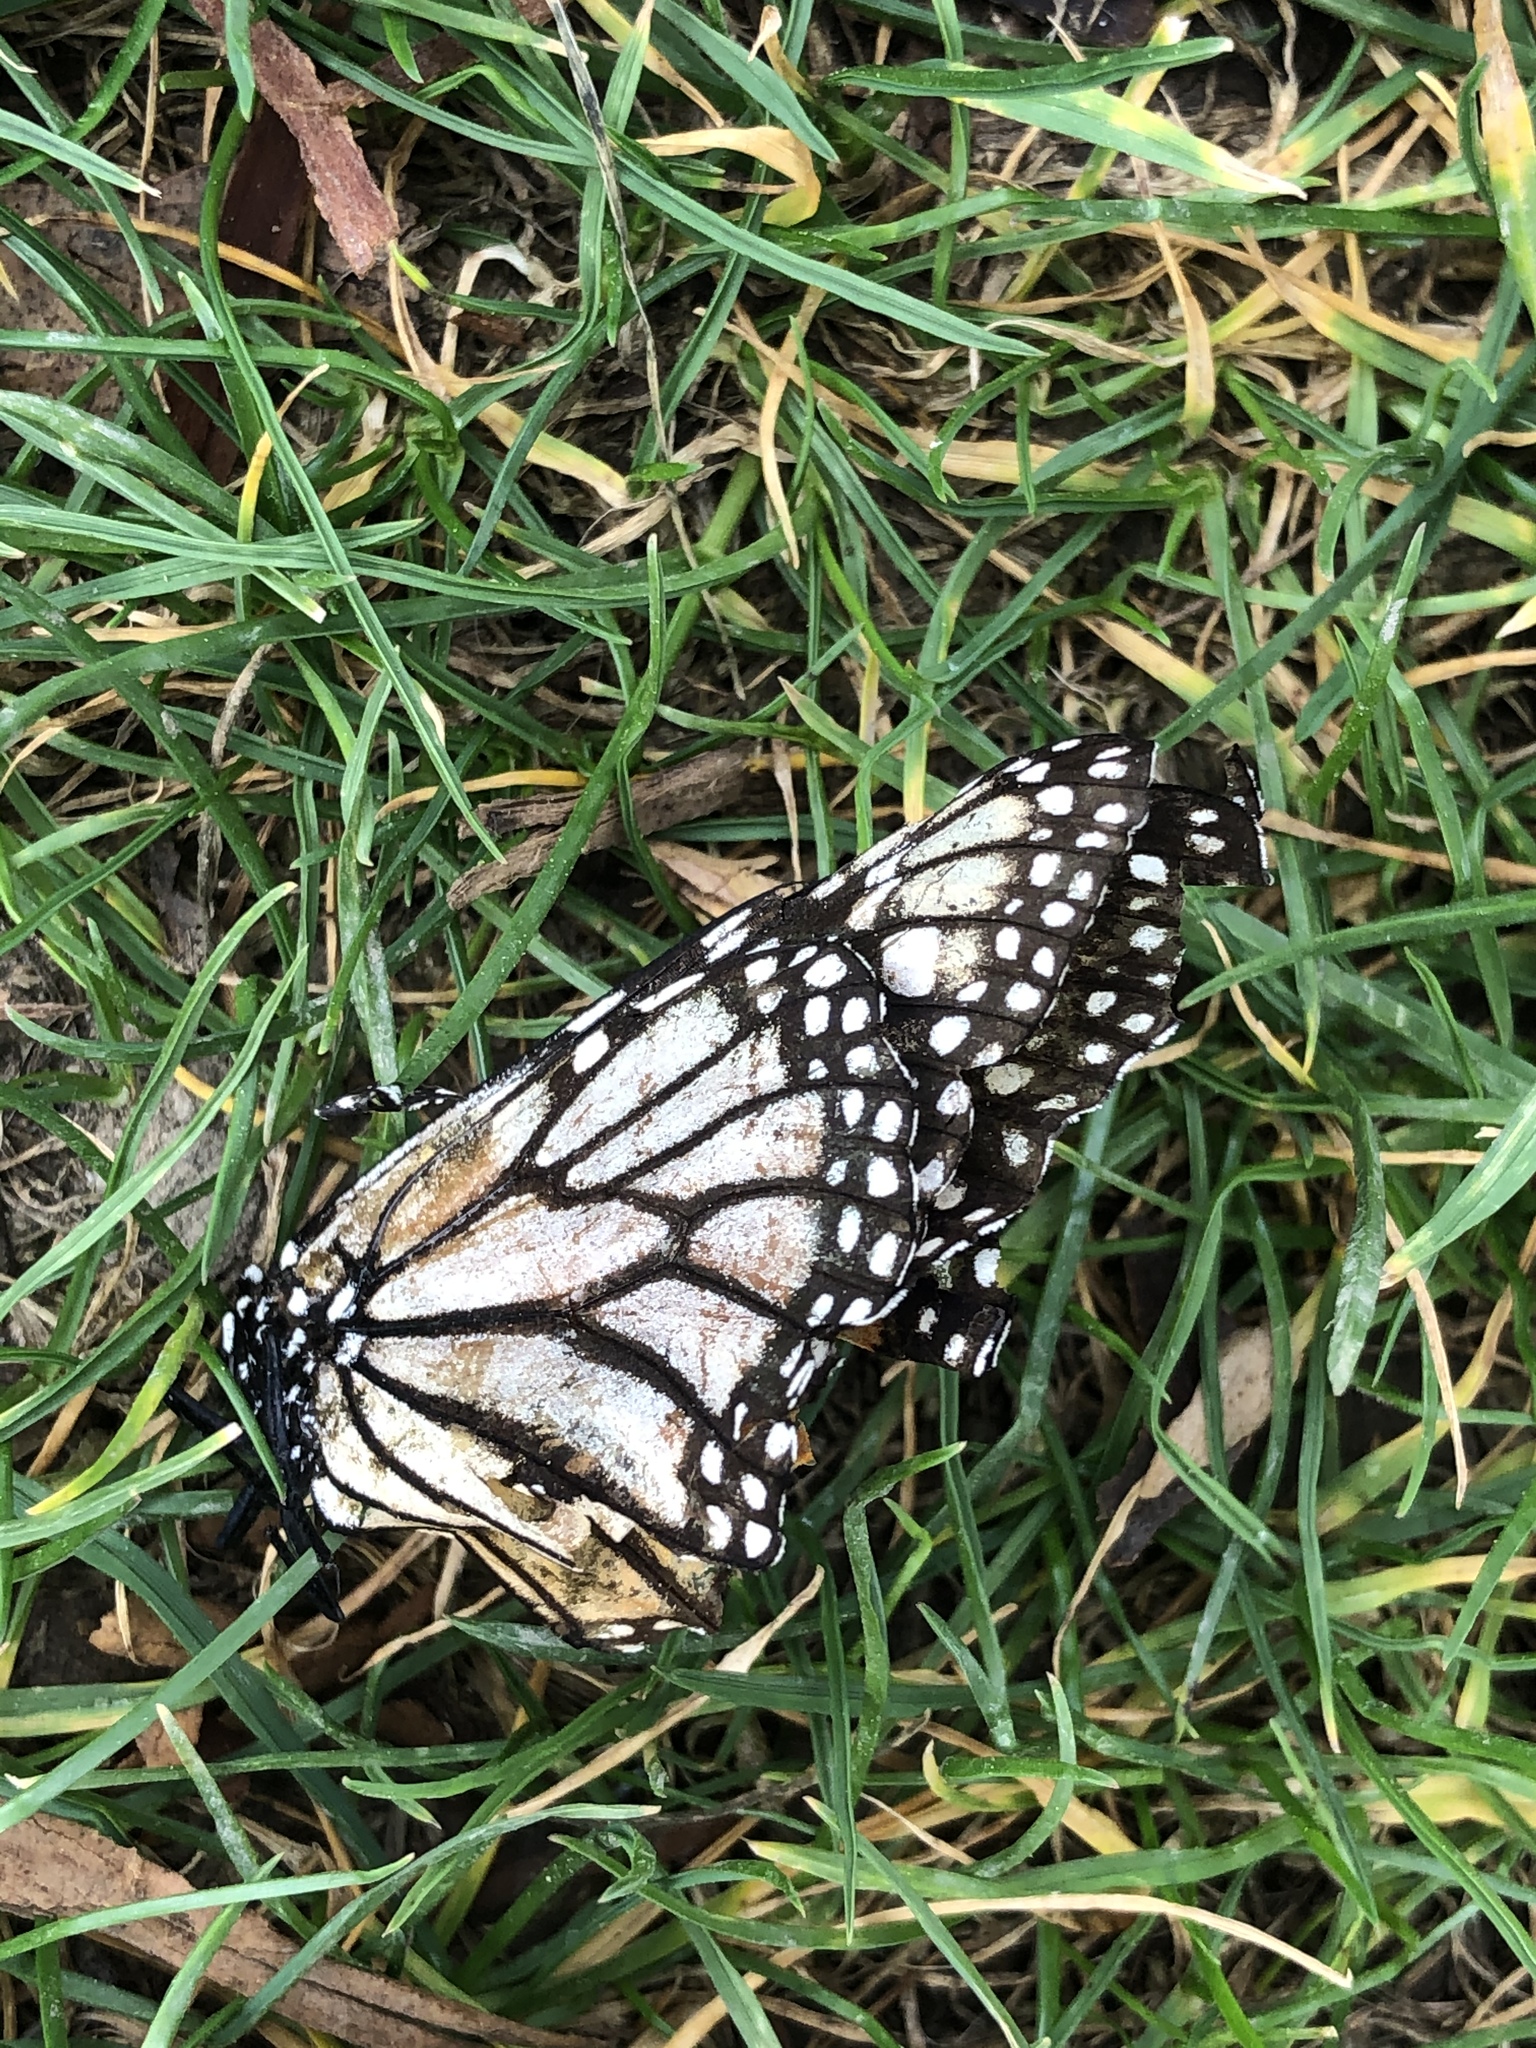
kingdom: Animalia
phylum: Arthropoda
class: Insecta
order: Lepidoptera
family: Nymphalidae
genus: Danaus
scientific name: Danaus plexippus
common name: Monarch
